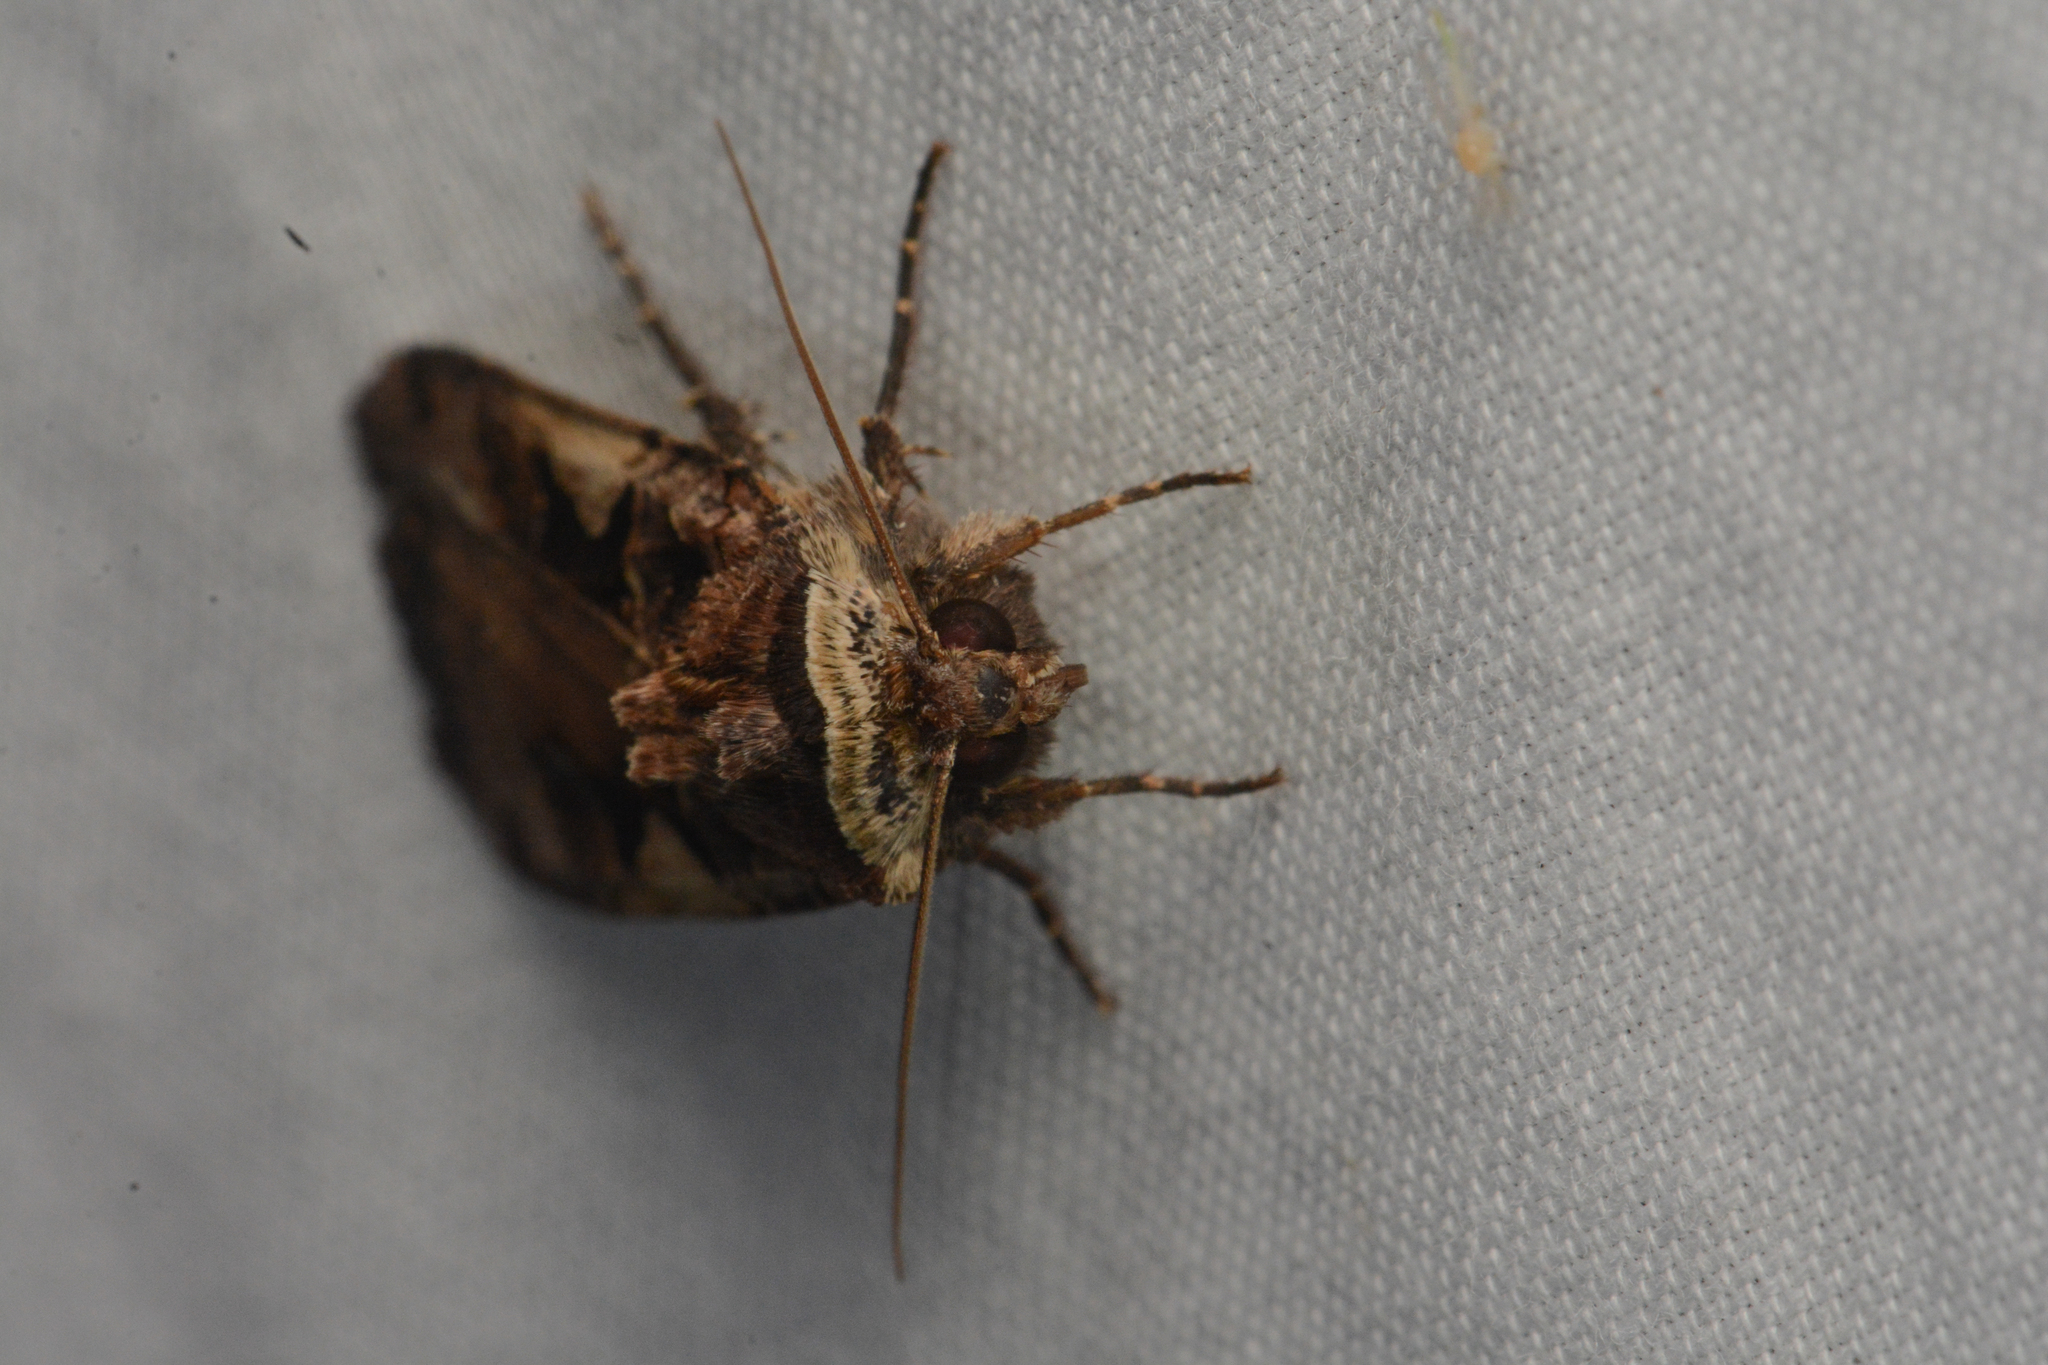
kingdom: Animalia
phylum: Arthropoda
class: Insecta
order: Lepidoptera
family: Noctuidae
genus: Xestia
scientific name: Xestia c-nigrum
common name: Setaceous hebrew character
